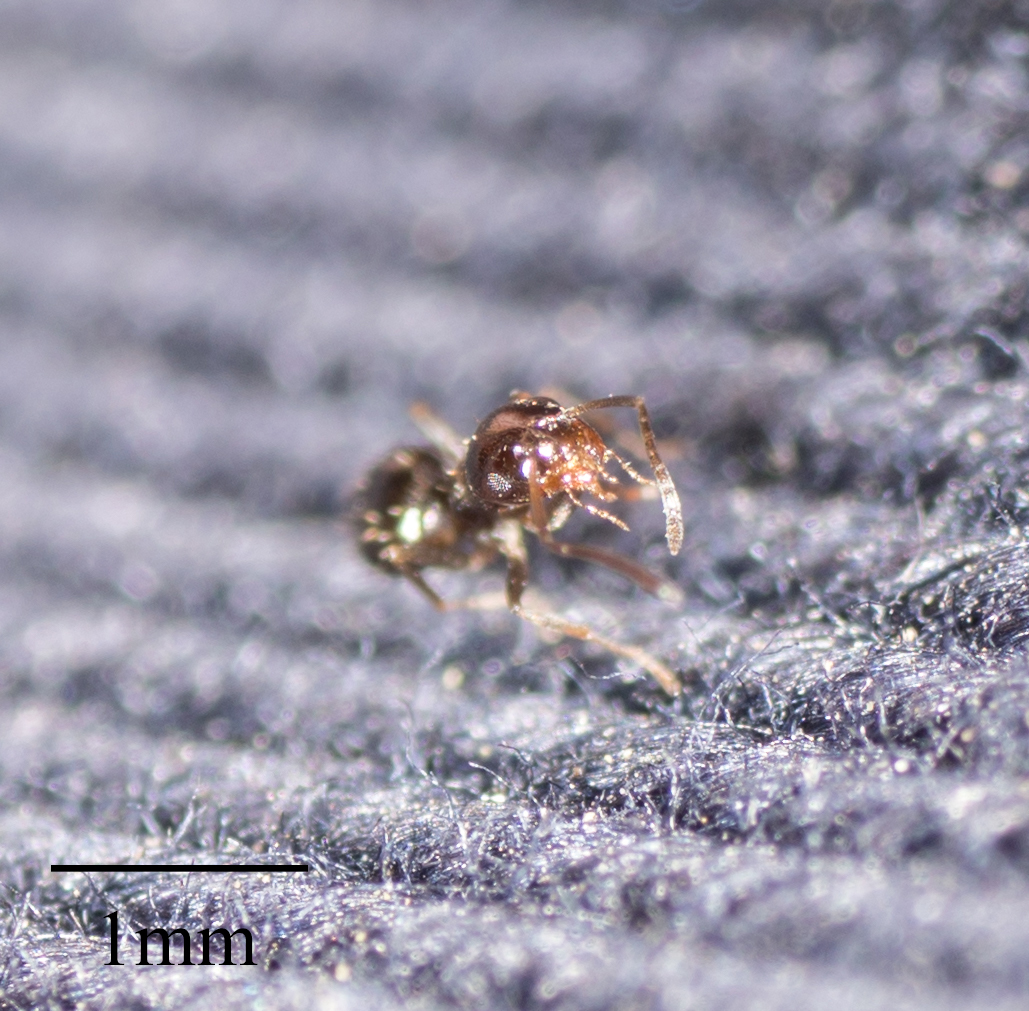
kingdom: Animalia
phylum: Arthropoda
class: Insecta
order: Hymenoptera
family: Formicidae
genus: Brachymyrmex
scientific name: Brachymyrmex patagonicus
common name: Dark rover ant
